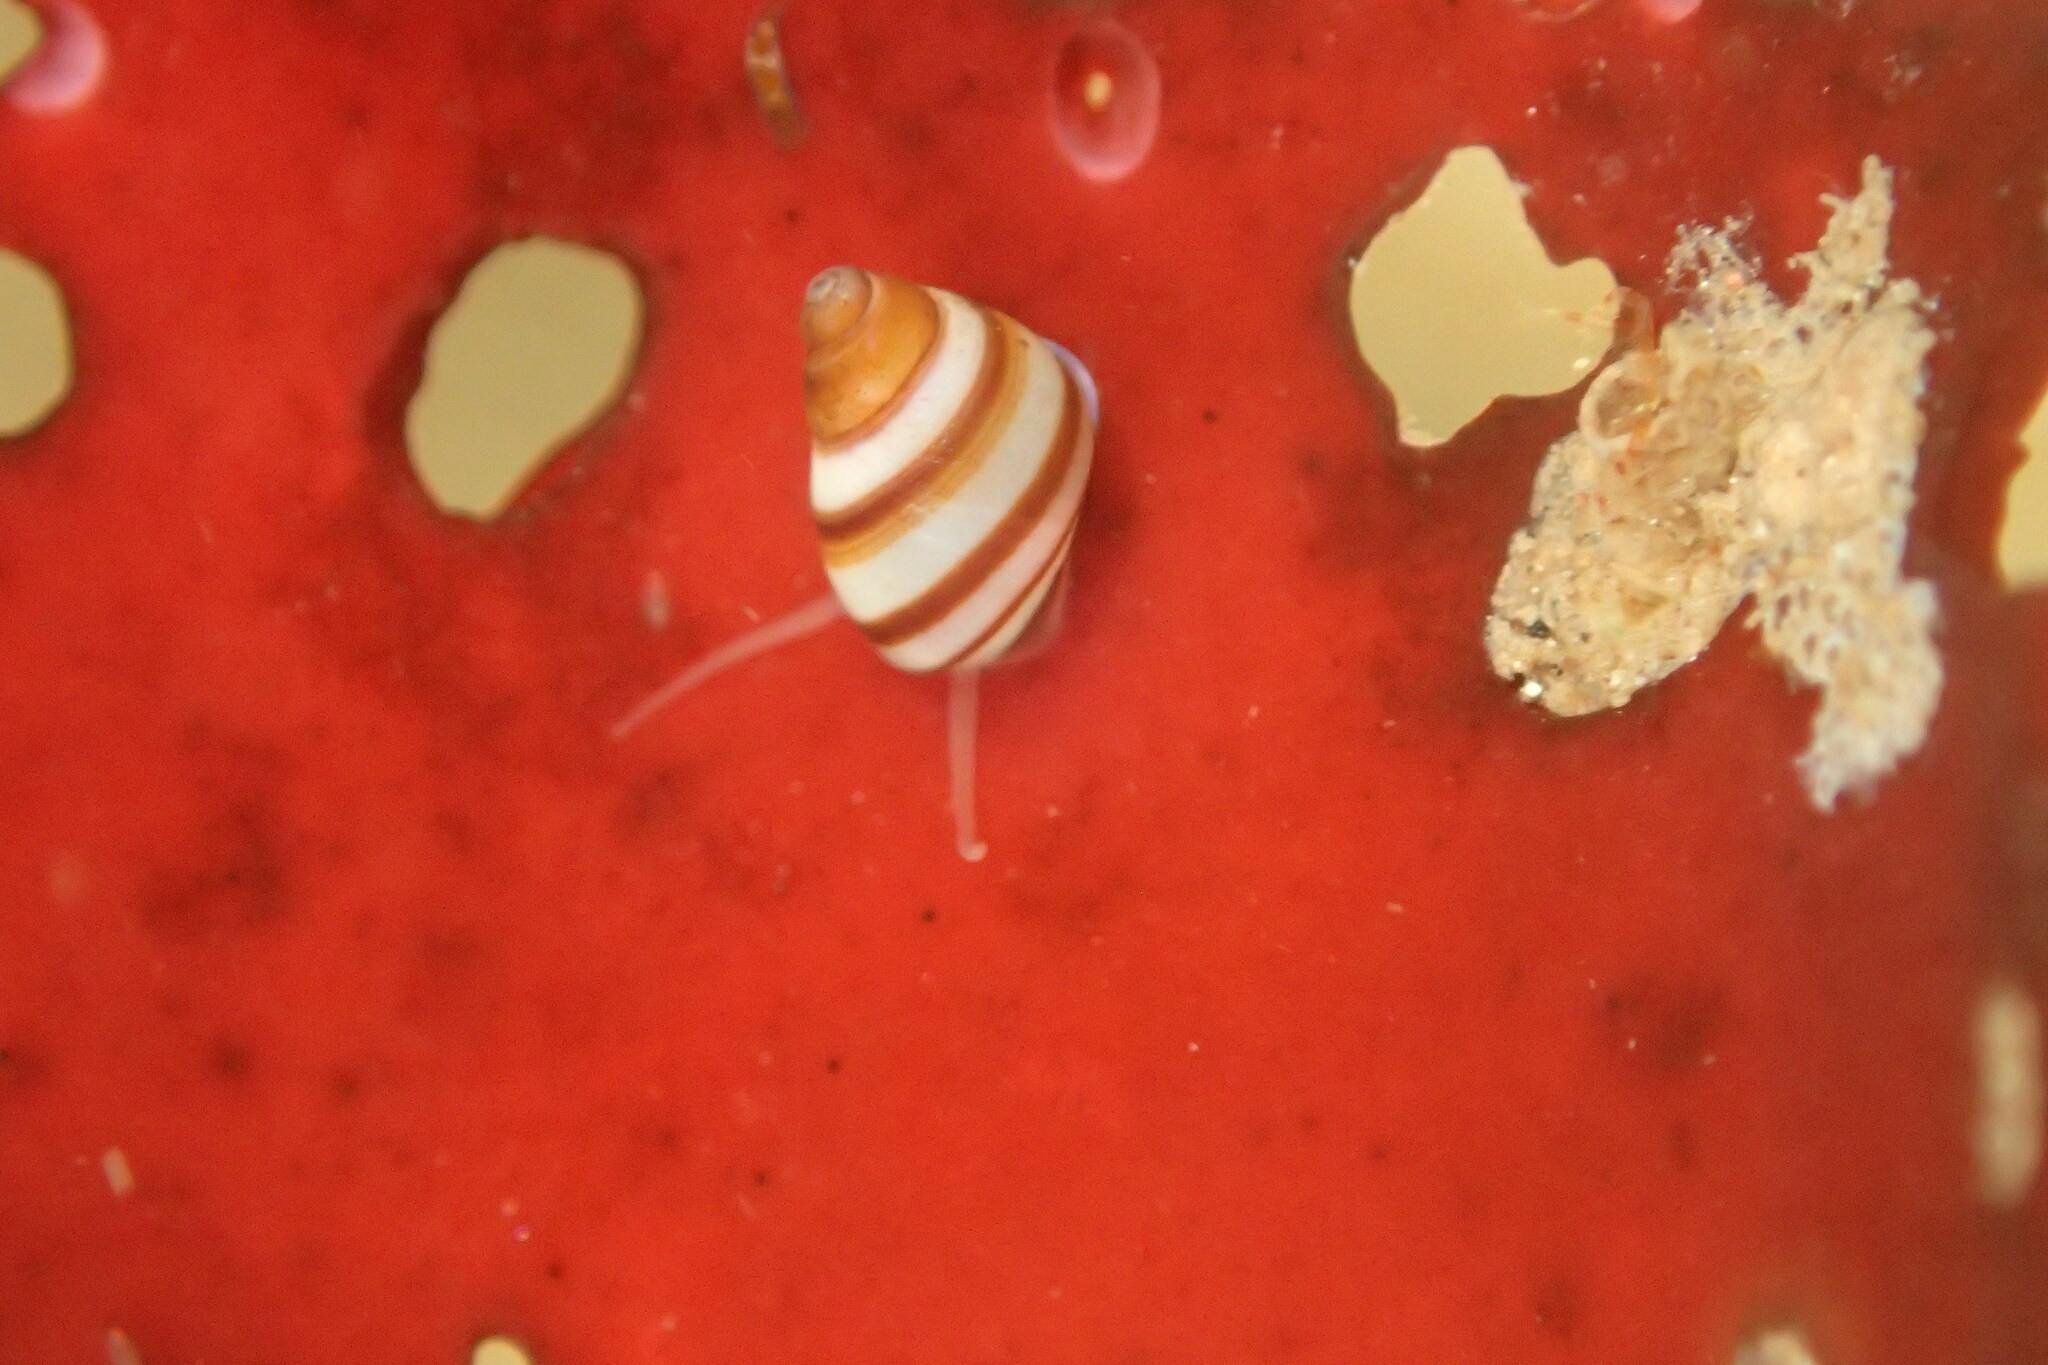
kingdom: Animalia
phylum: Mollusca
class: Gastropoda
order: Littorinimorpha
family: Littorinidae
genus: Lacuna
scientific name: Lacuna vincta
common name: Banded chink shell
